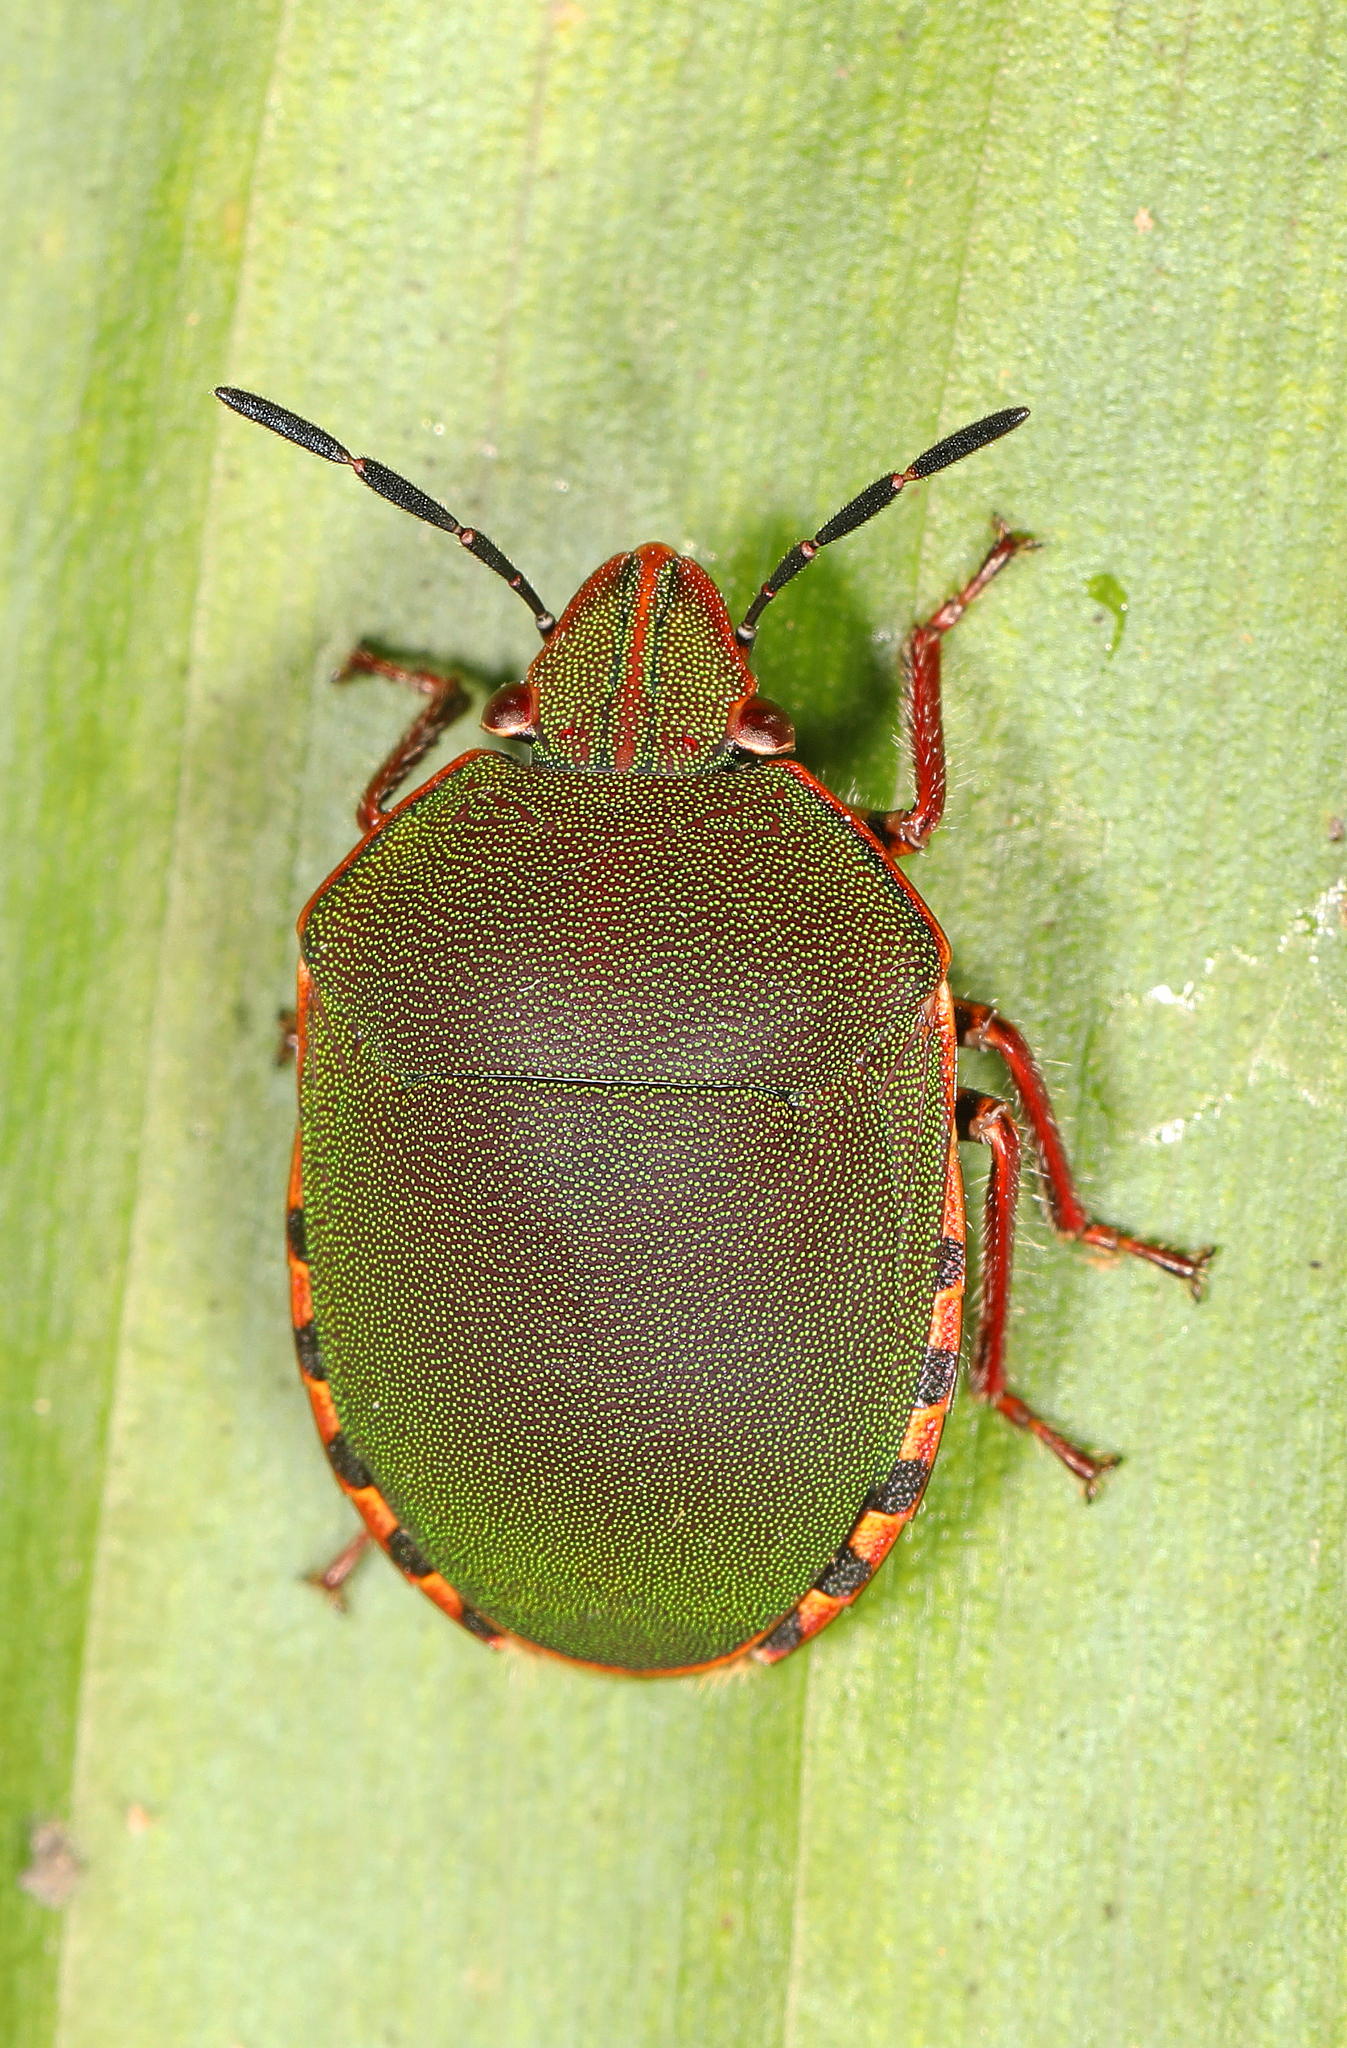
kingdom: Animalia
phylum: Arthropoda
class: Insecta
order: Hemiptera
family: Scutelleridae
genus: Polytes
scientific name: Polytes
